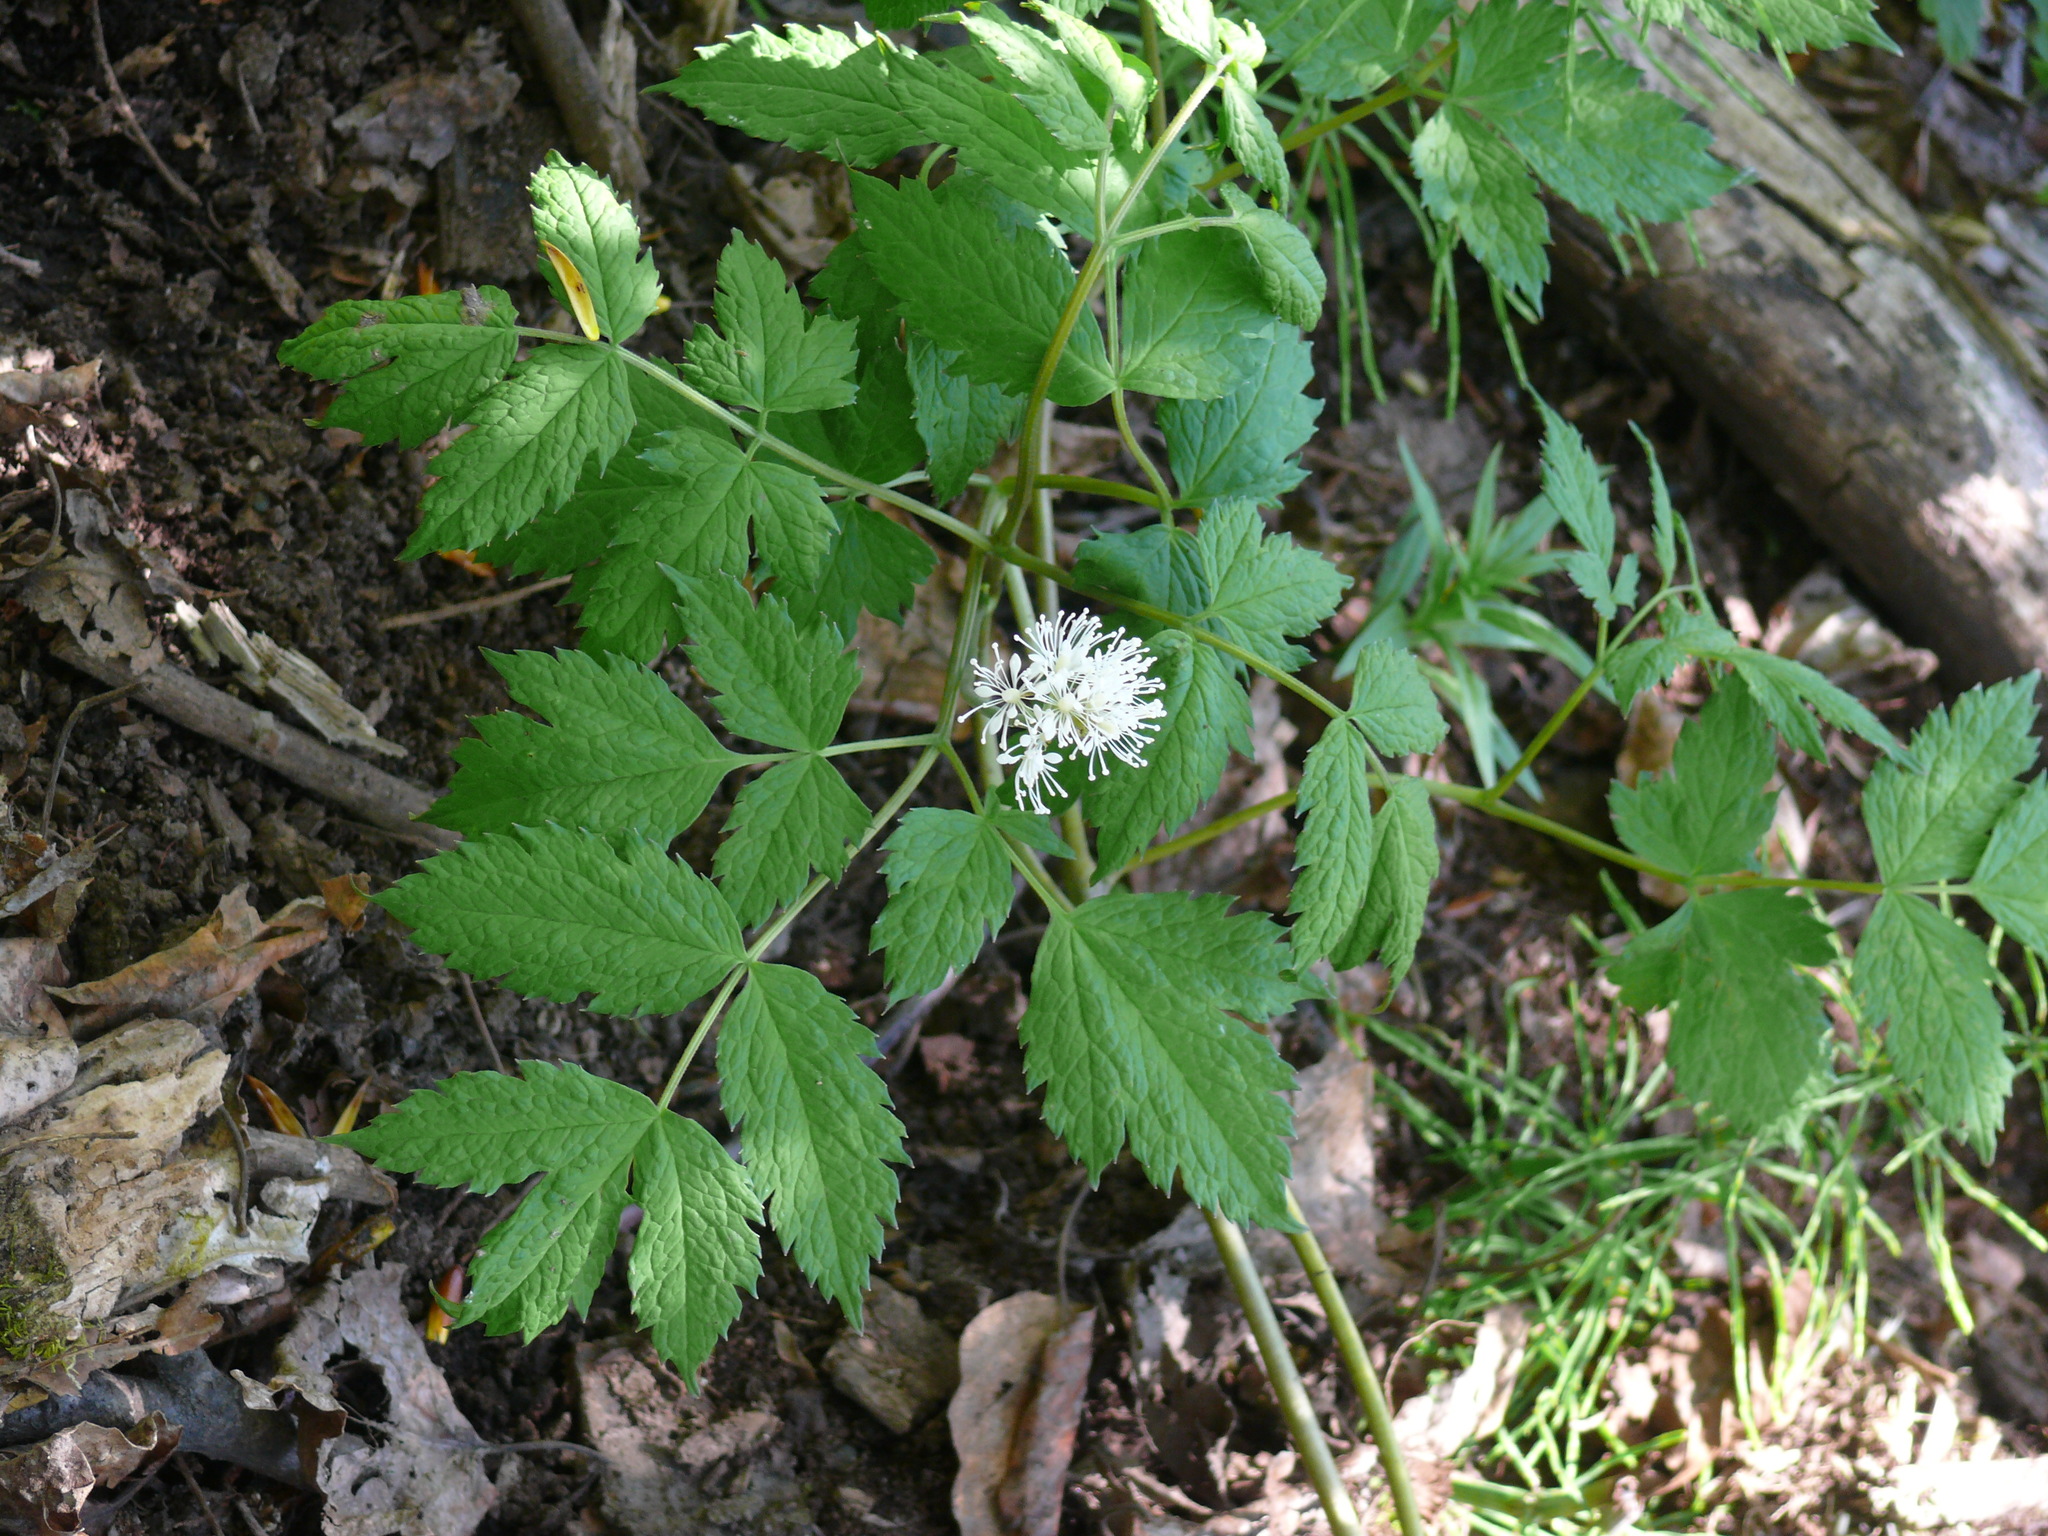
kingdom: Plantae
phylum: Tracheophyta
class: Magnoliopsida
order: Ranunculales
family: Ranunculaceae
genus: Actaea
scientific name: Actaea rubra
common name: Red baneberry
